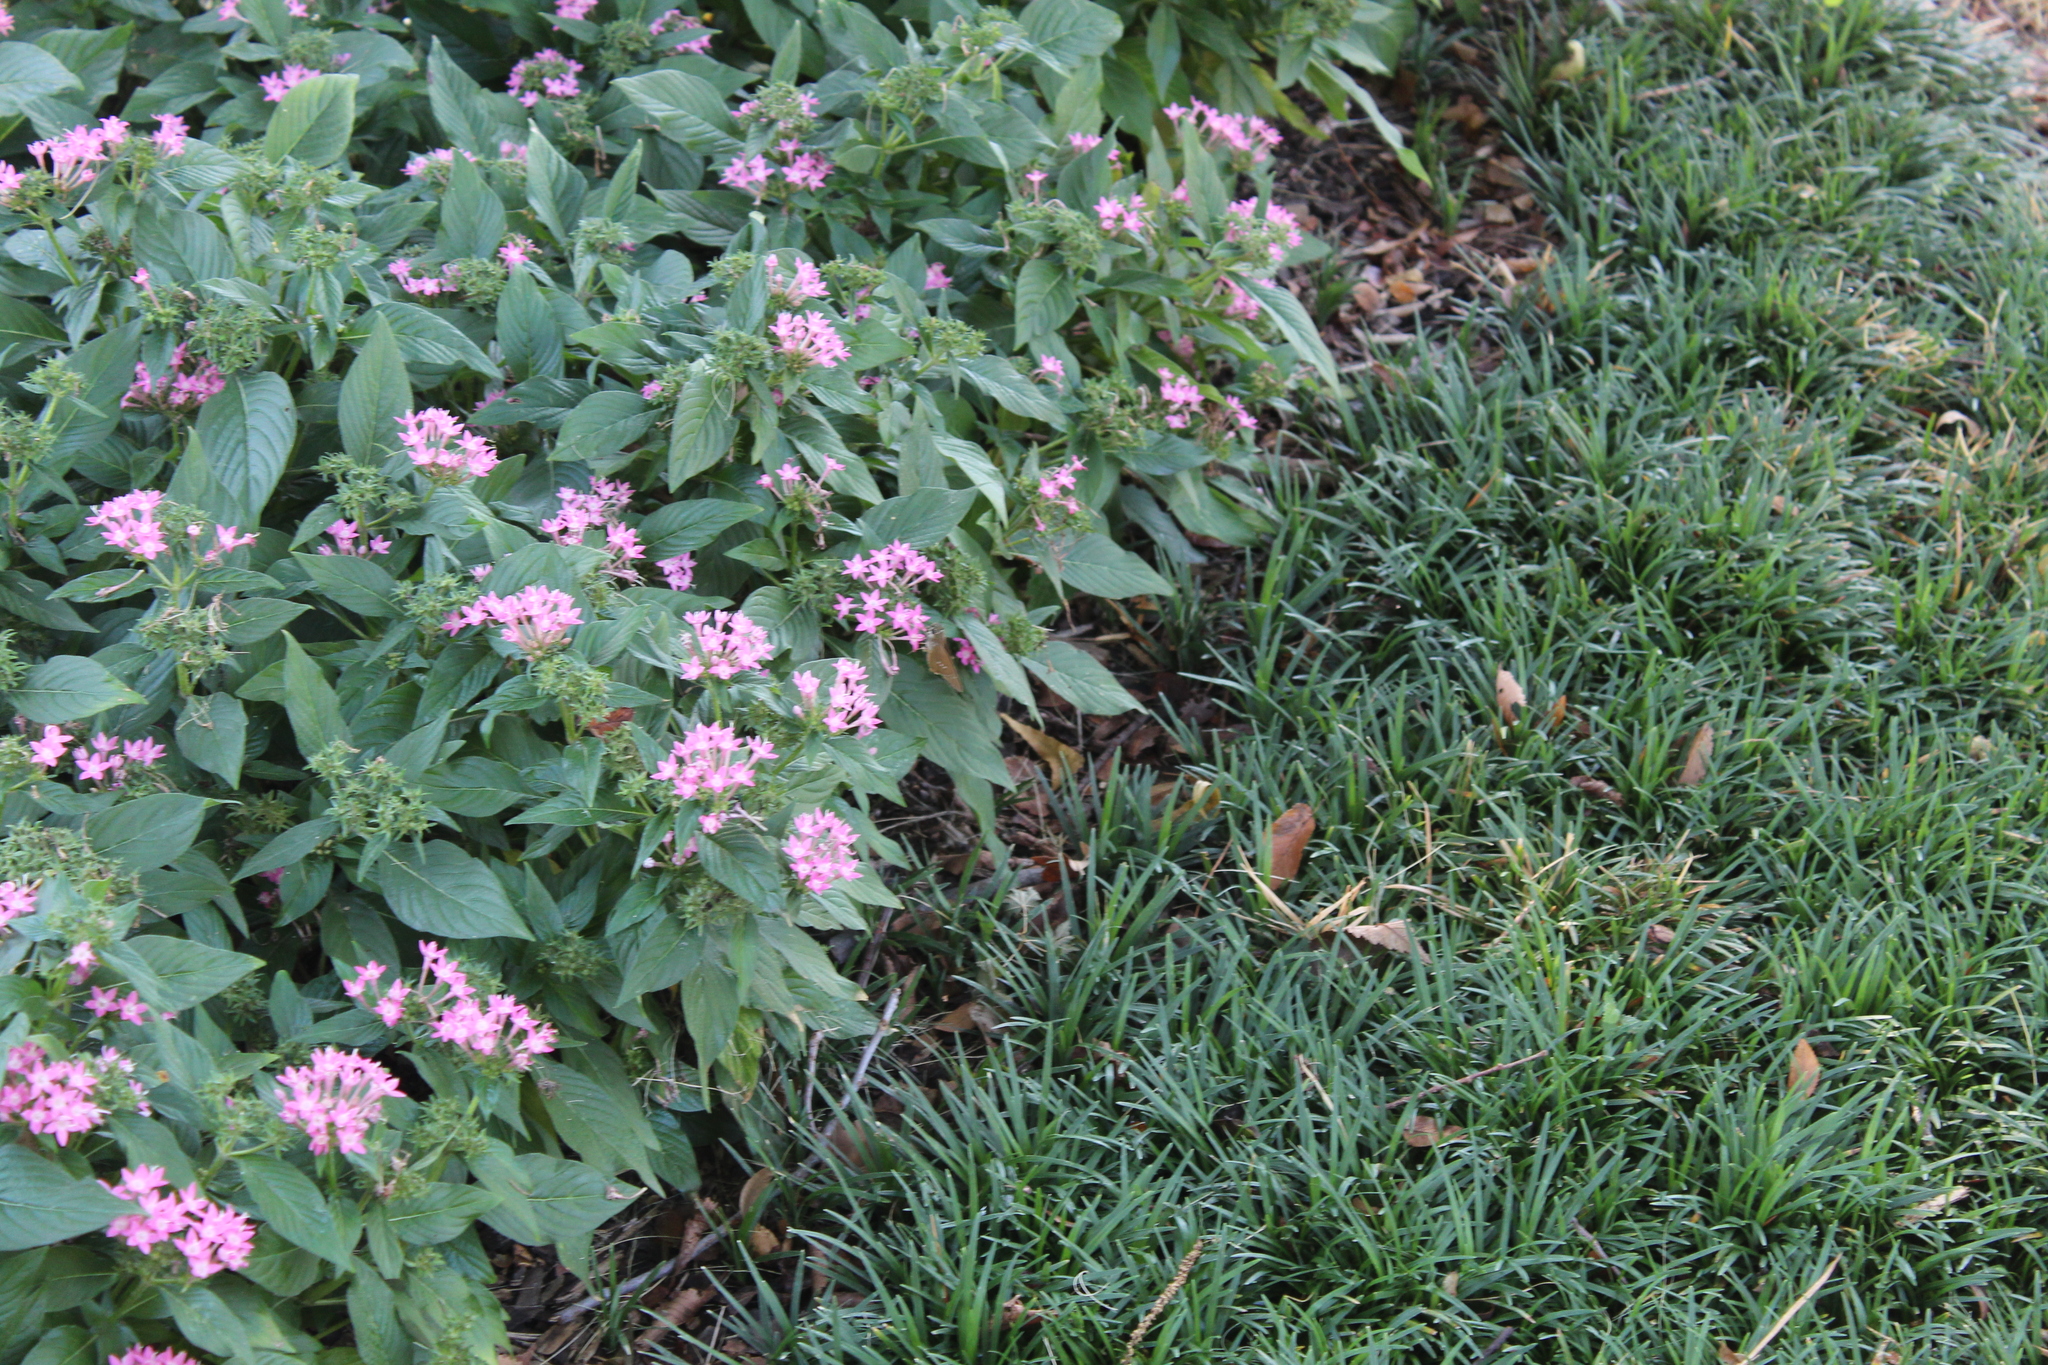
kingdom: Animalia
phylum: Arthropoda
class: Insecta
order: Lepidoptera
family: Hesperiidae
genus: Calpodes
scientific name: Calpodes ethlius
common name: Brazilian skipper
